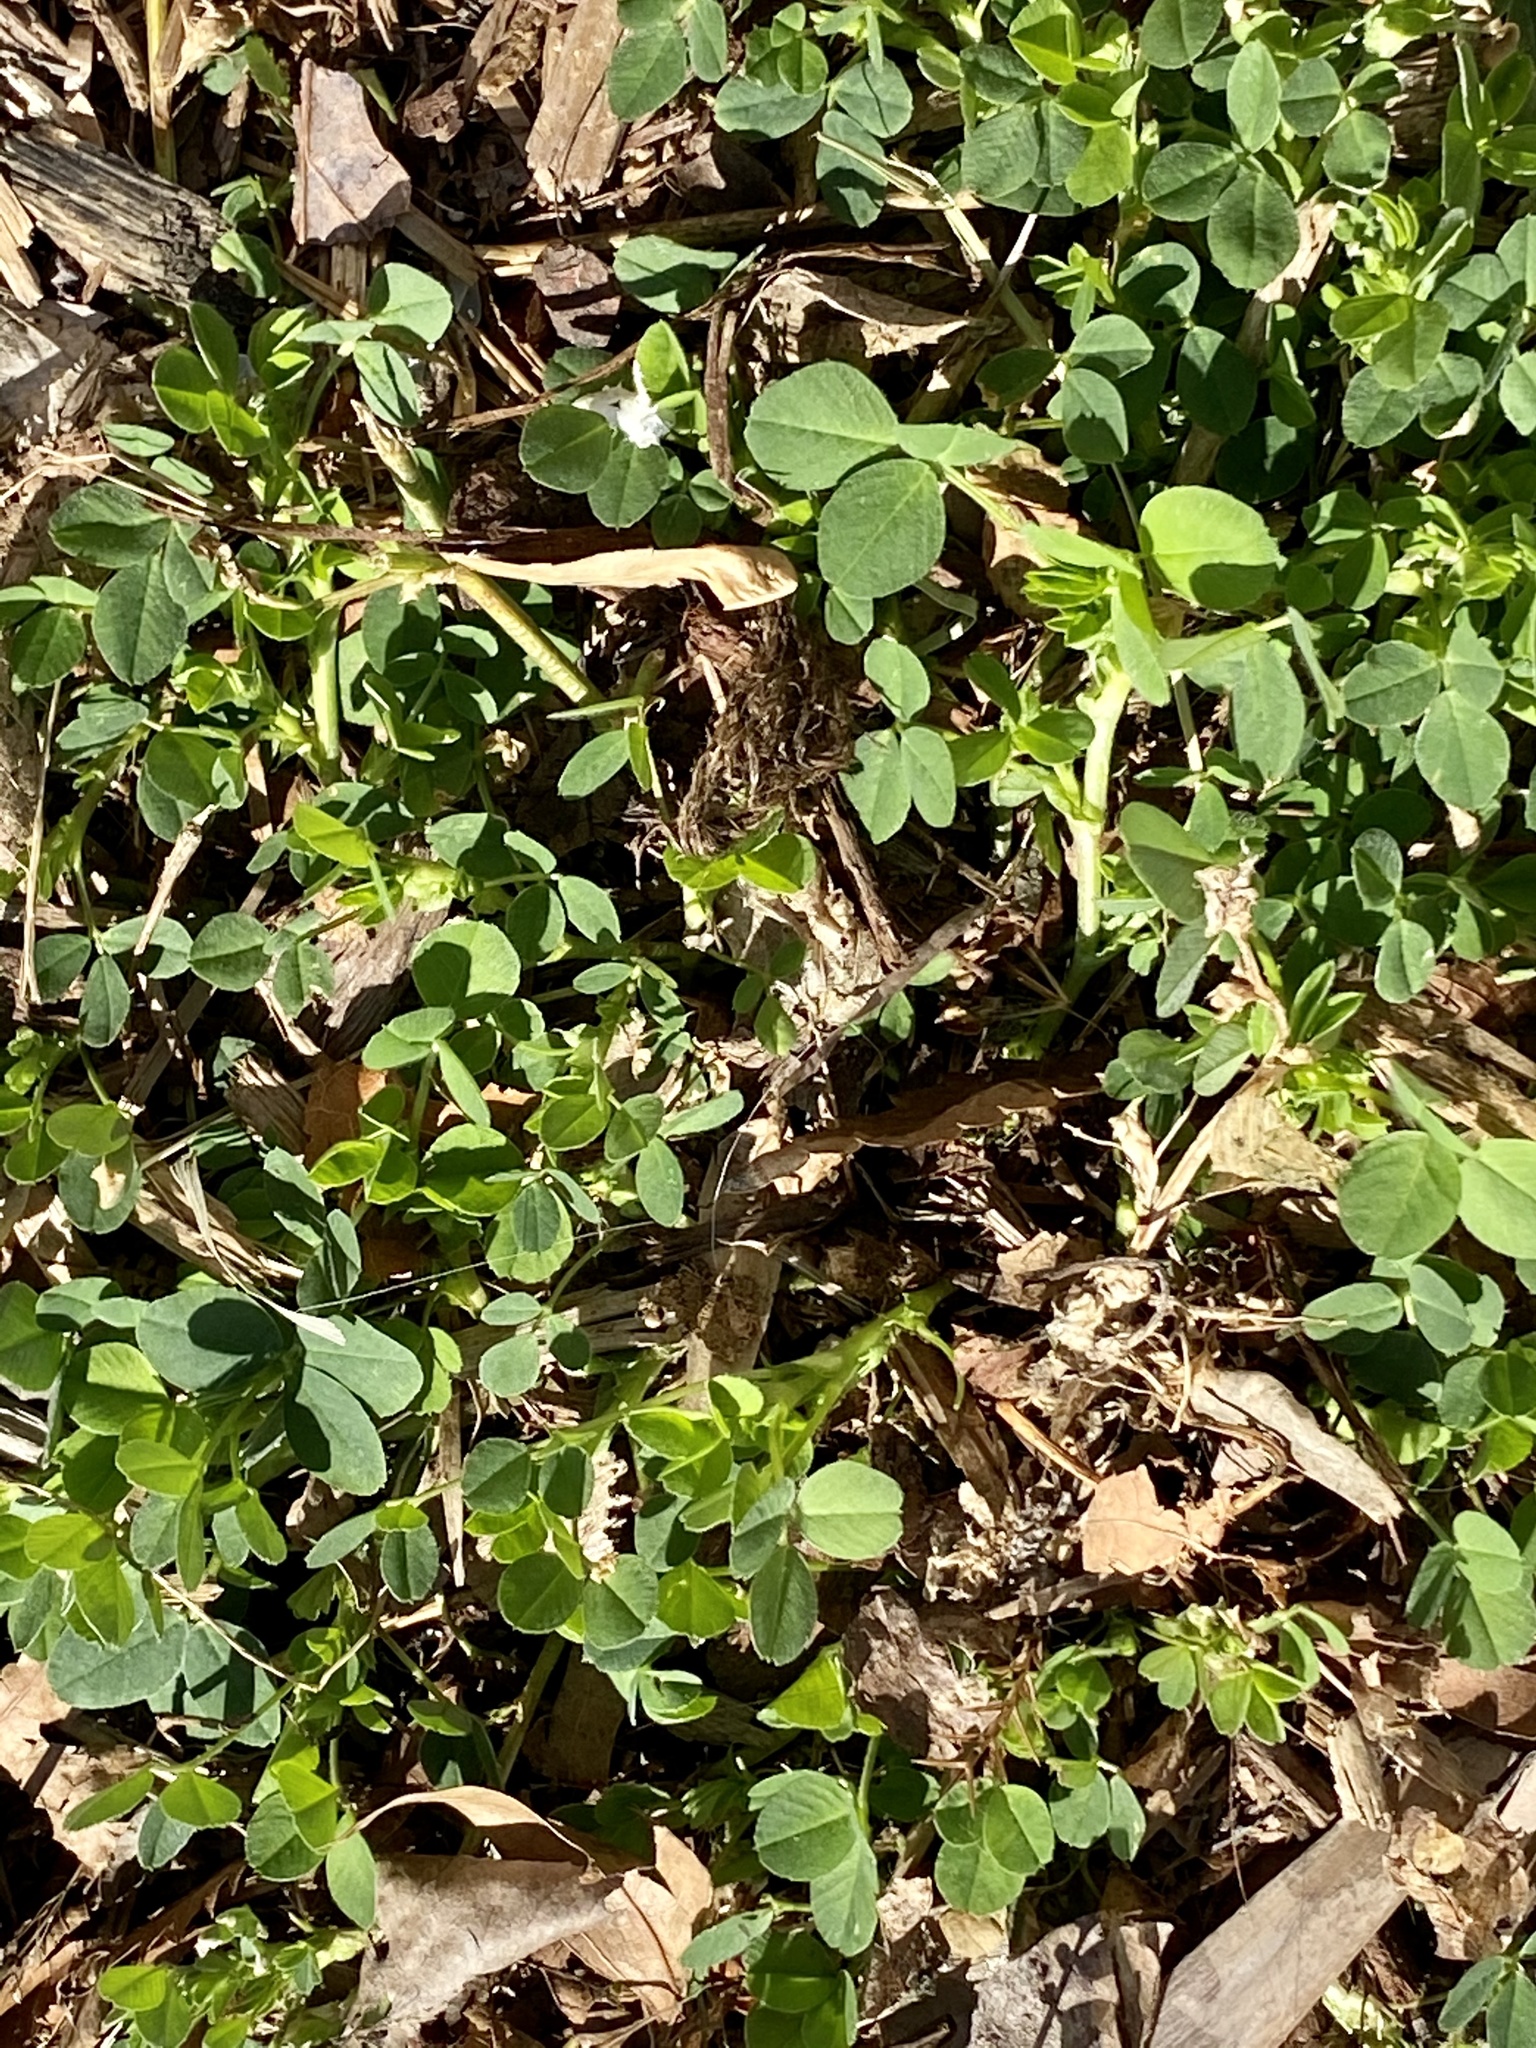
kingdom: Plantae
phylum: Tracheophyta
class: Magnoliopsida
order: Fabales
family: Fabaceae
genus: Medicago
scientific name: Medicago lupulina
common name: Black medick
